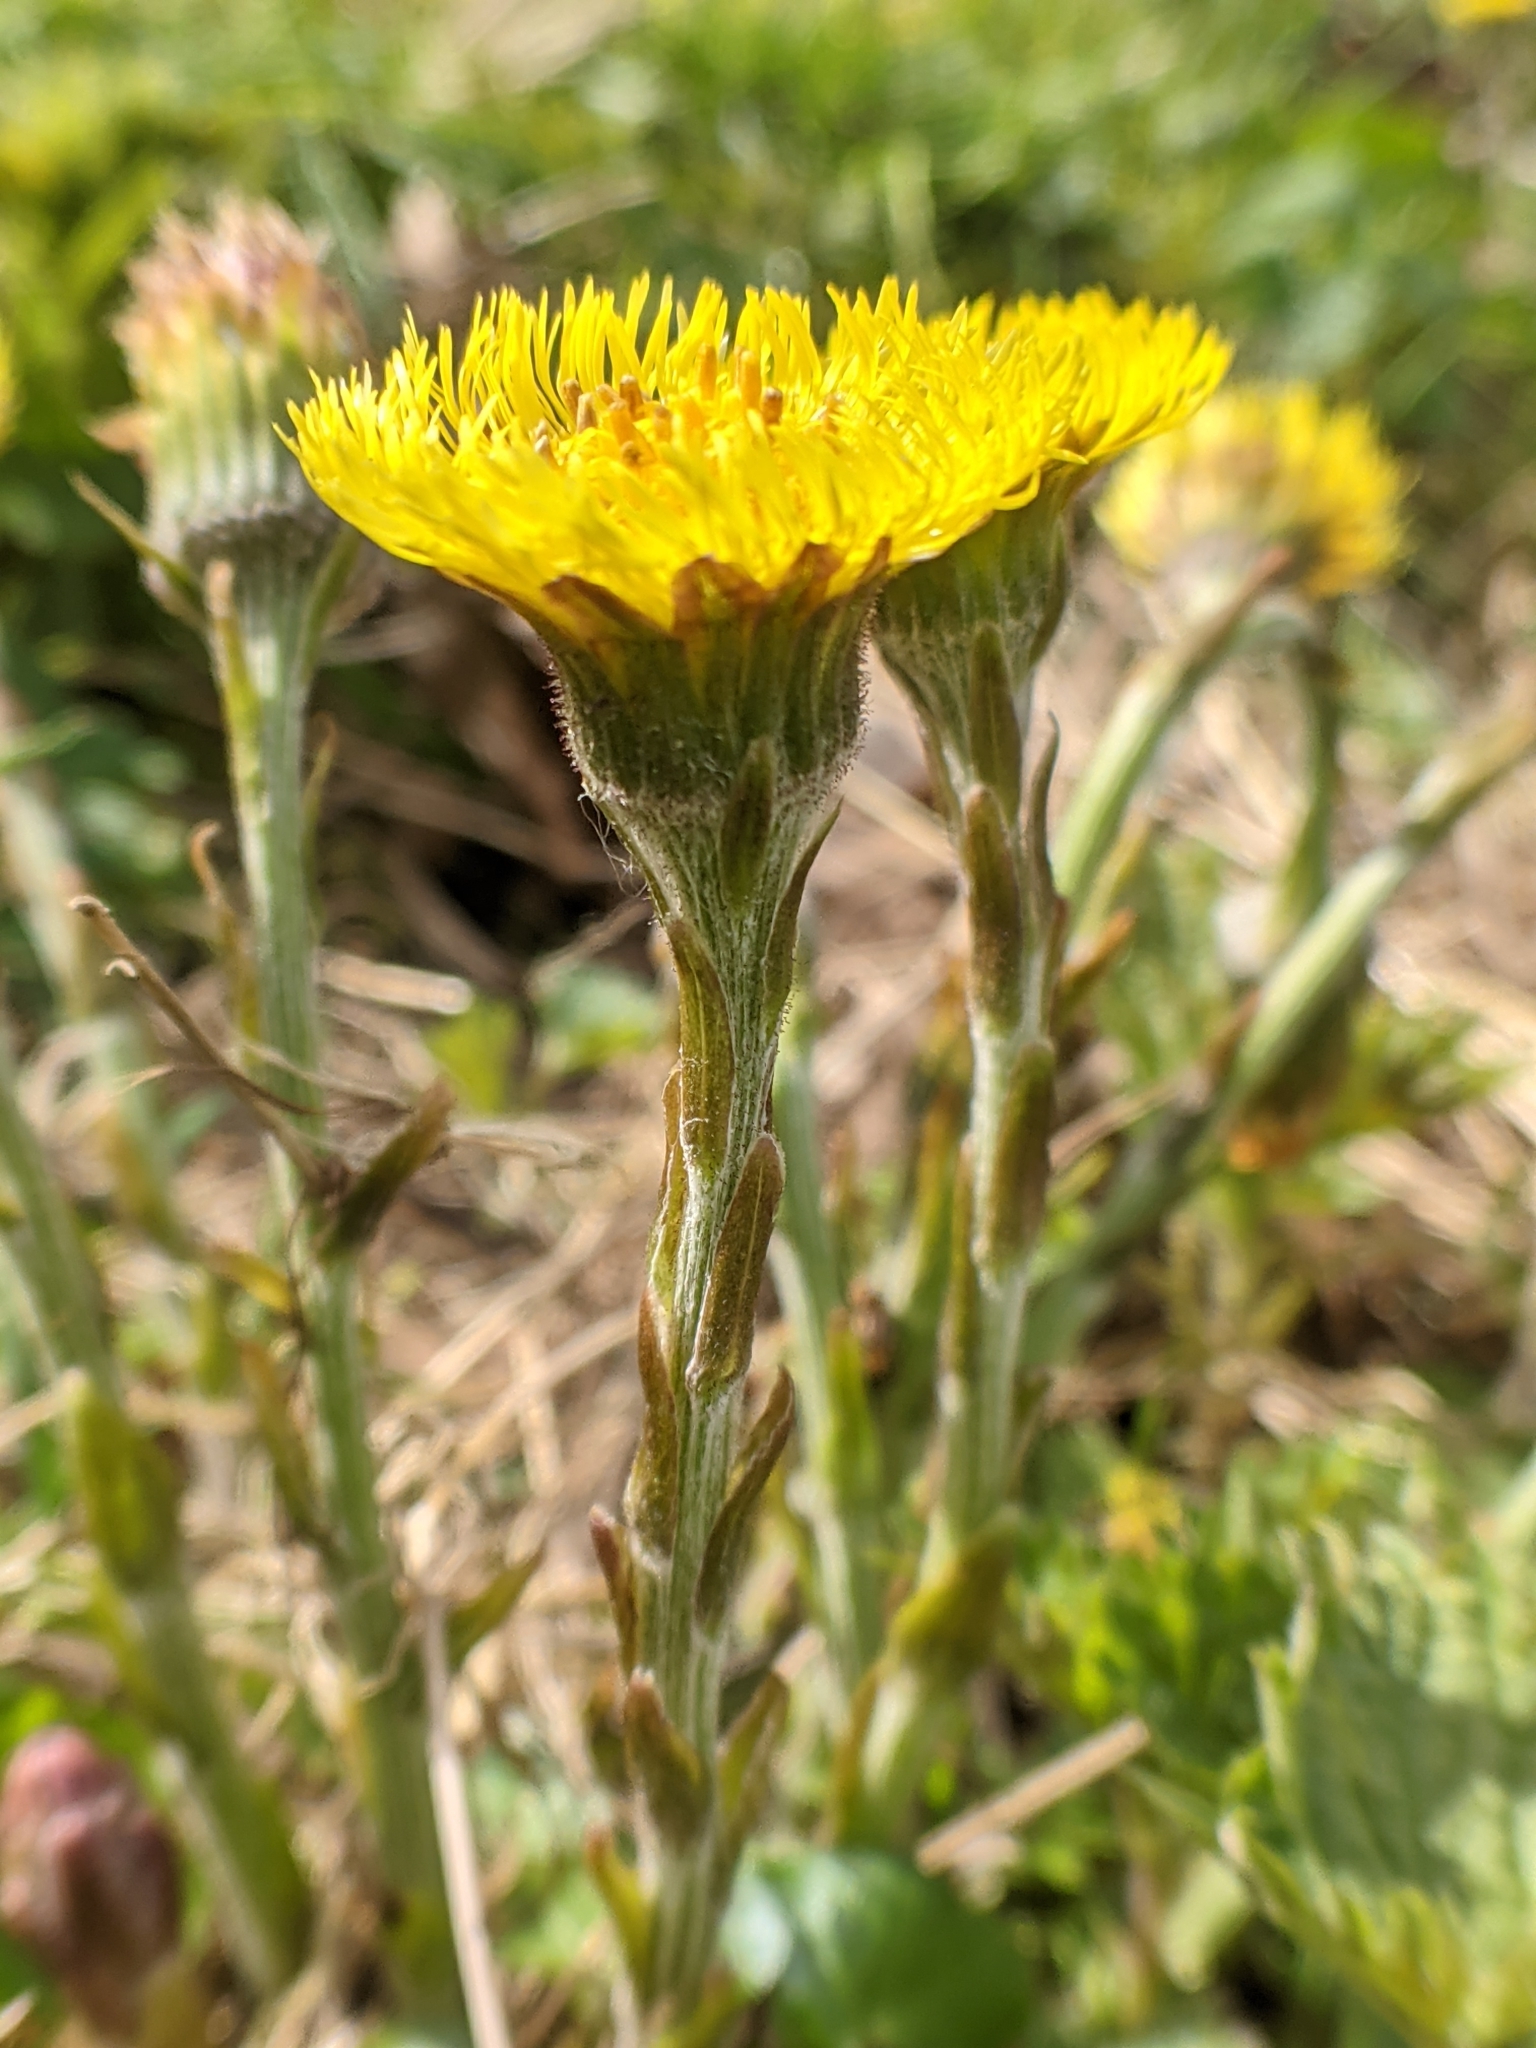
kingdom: Plantae
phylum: Tracheophyta
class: Magnoliopsida
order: Asterales
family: Asteraceae
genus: Tussilago
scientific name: Tussilago farfara
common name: Coltsfoot
